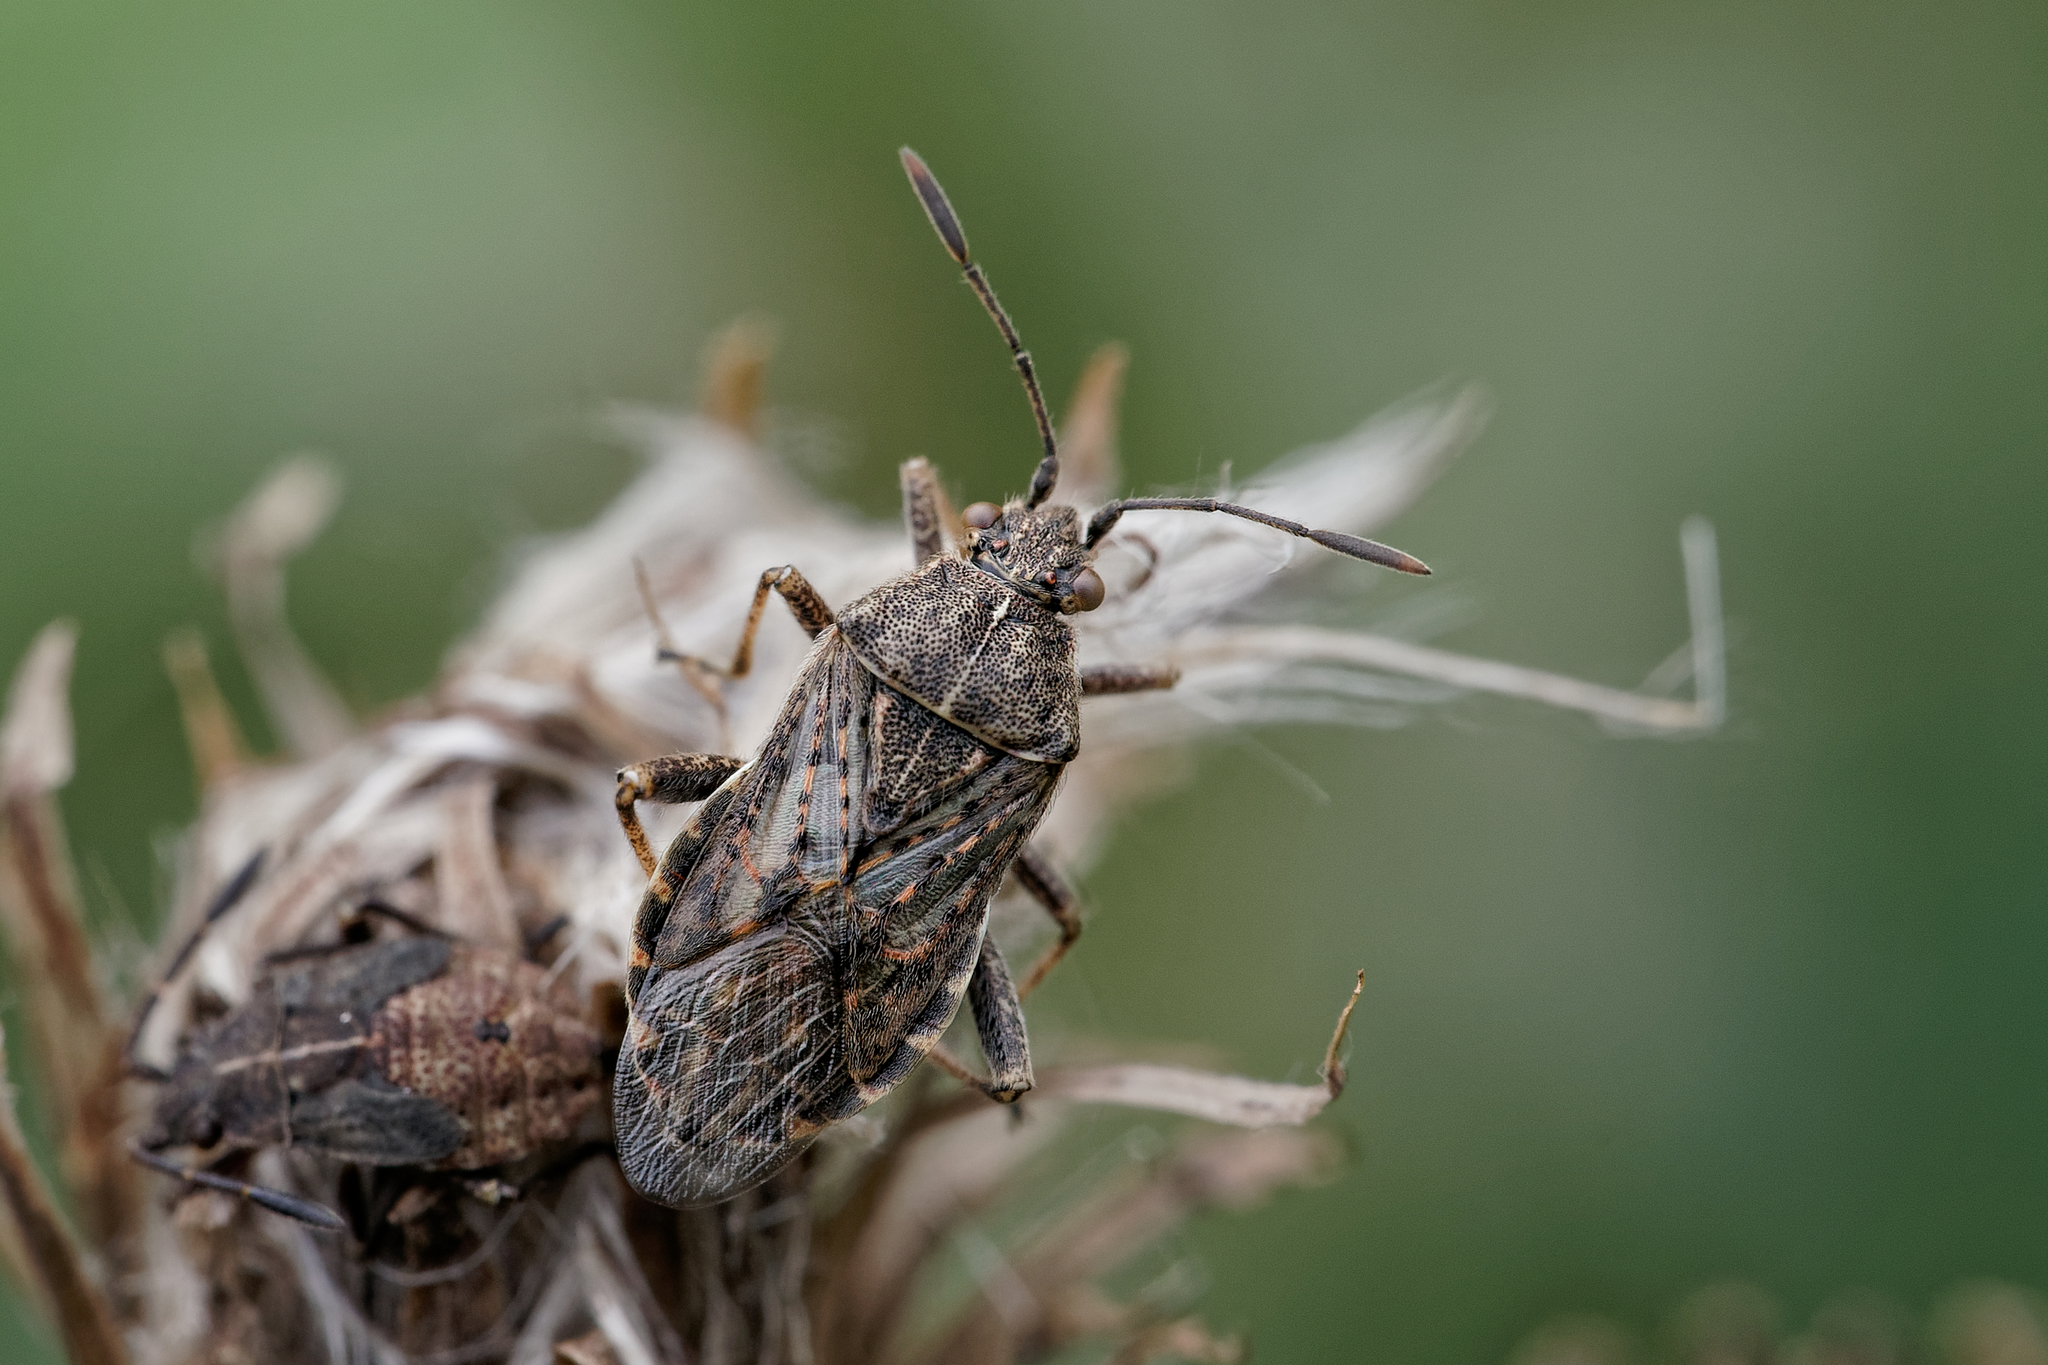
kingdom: Animalia
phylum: Arthropoda
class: Insecta
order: Hemiptera
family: Rhopalidae
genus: Stictopleurus
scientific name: Stictopleurus punctatonervosus
